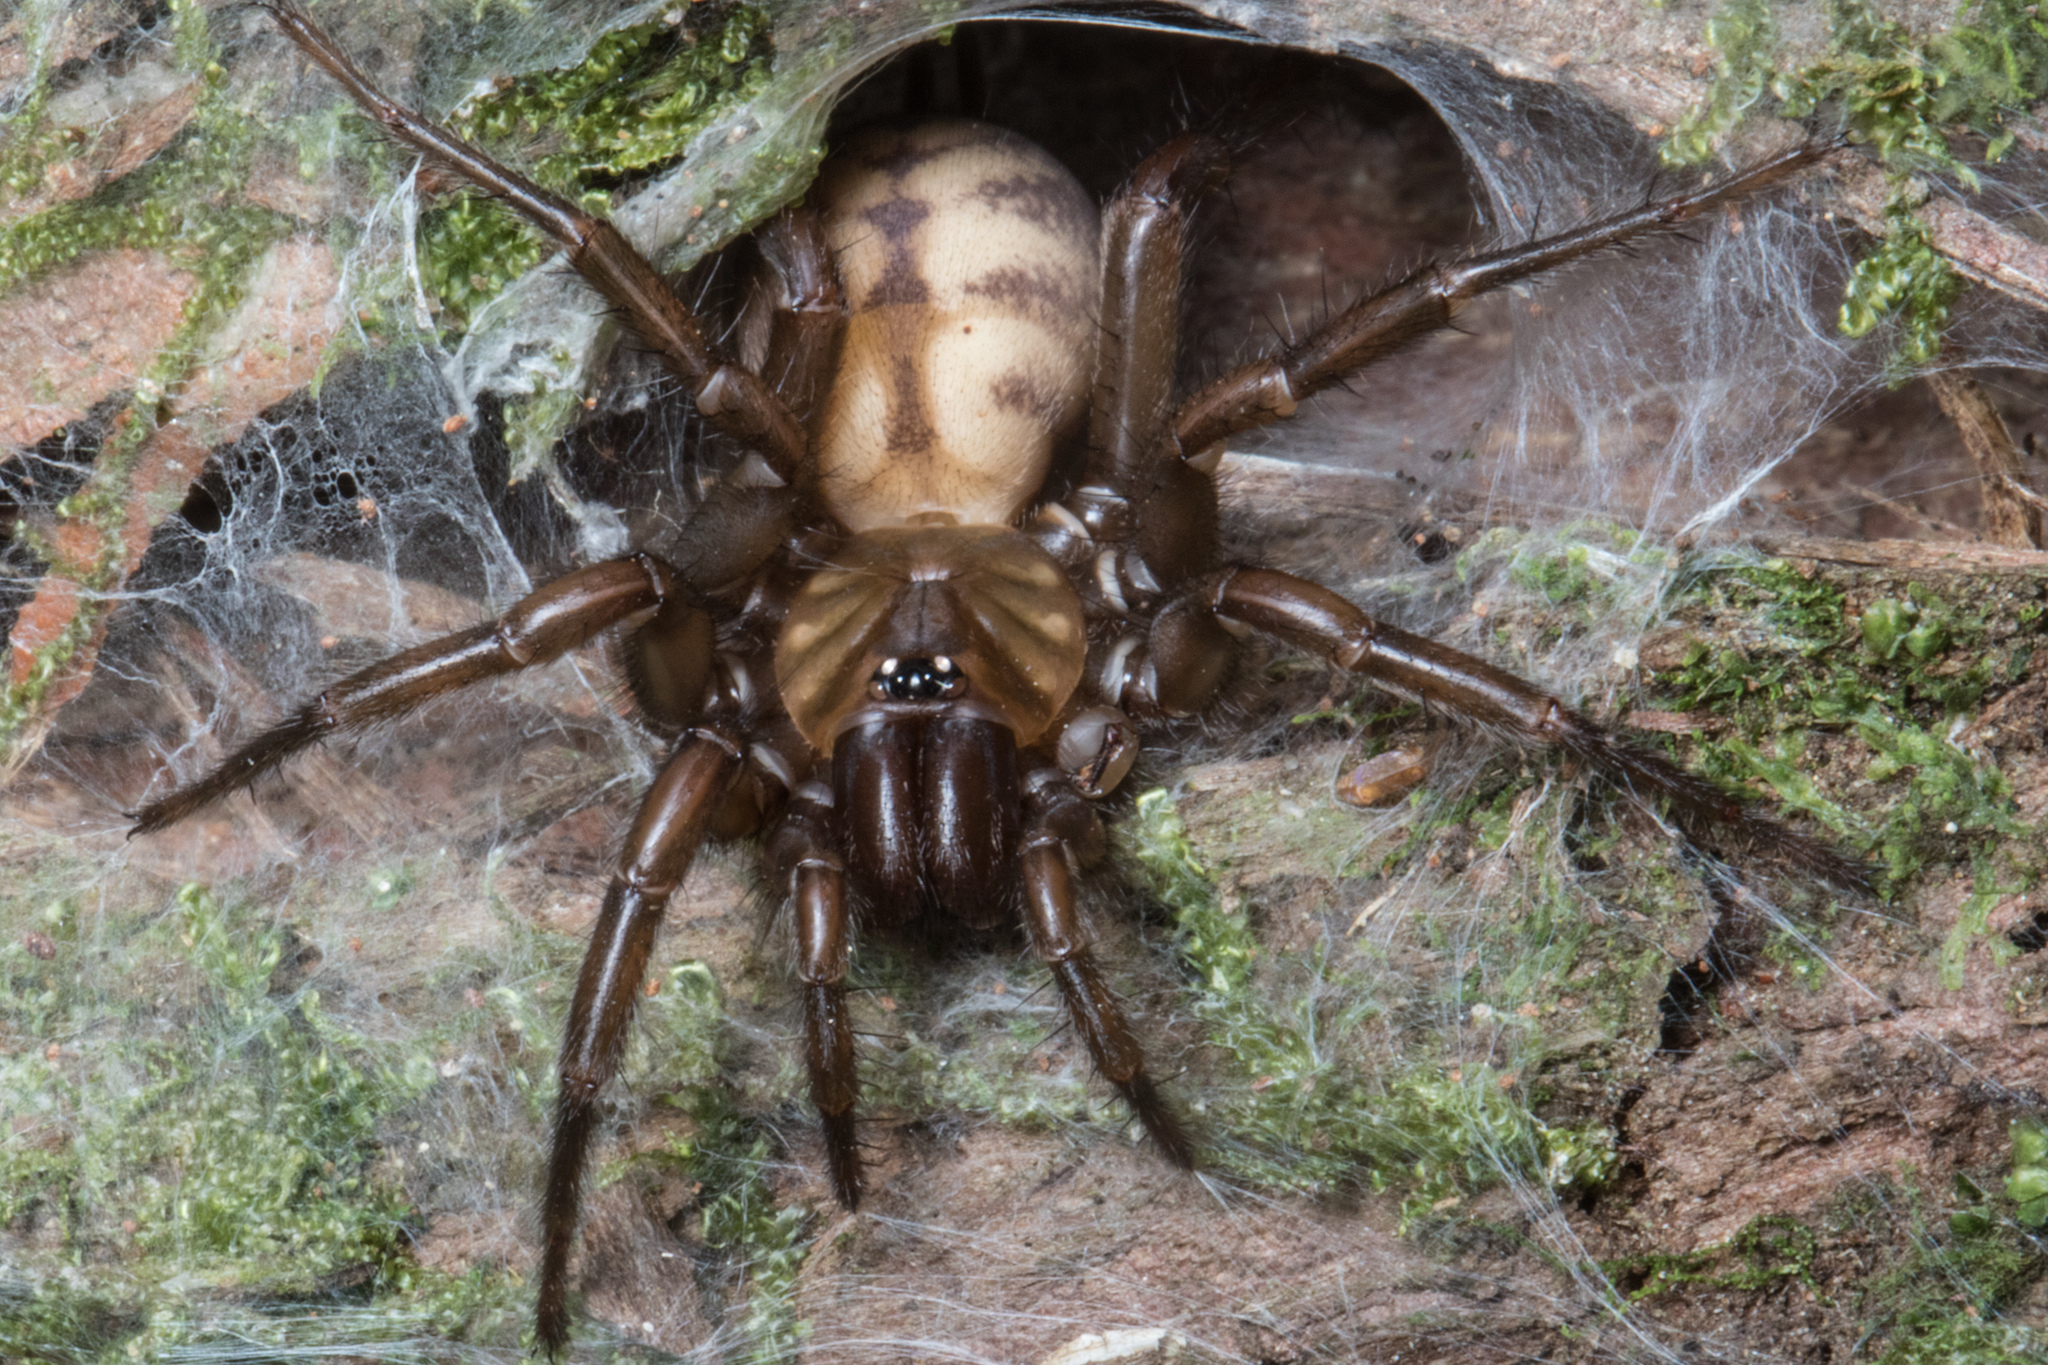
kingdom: Animalia
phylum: Arthropoda
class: Arachnida
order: Araneae
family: Hexathelidae
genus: Hexathele
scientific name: Hexathele hochstetteri
